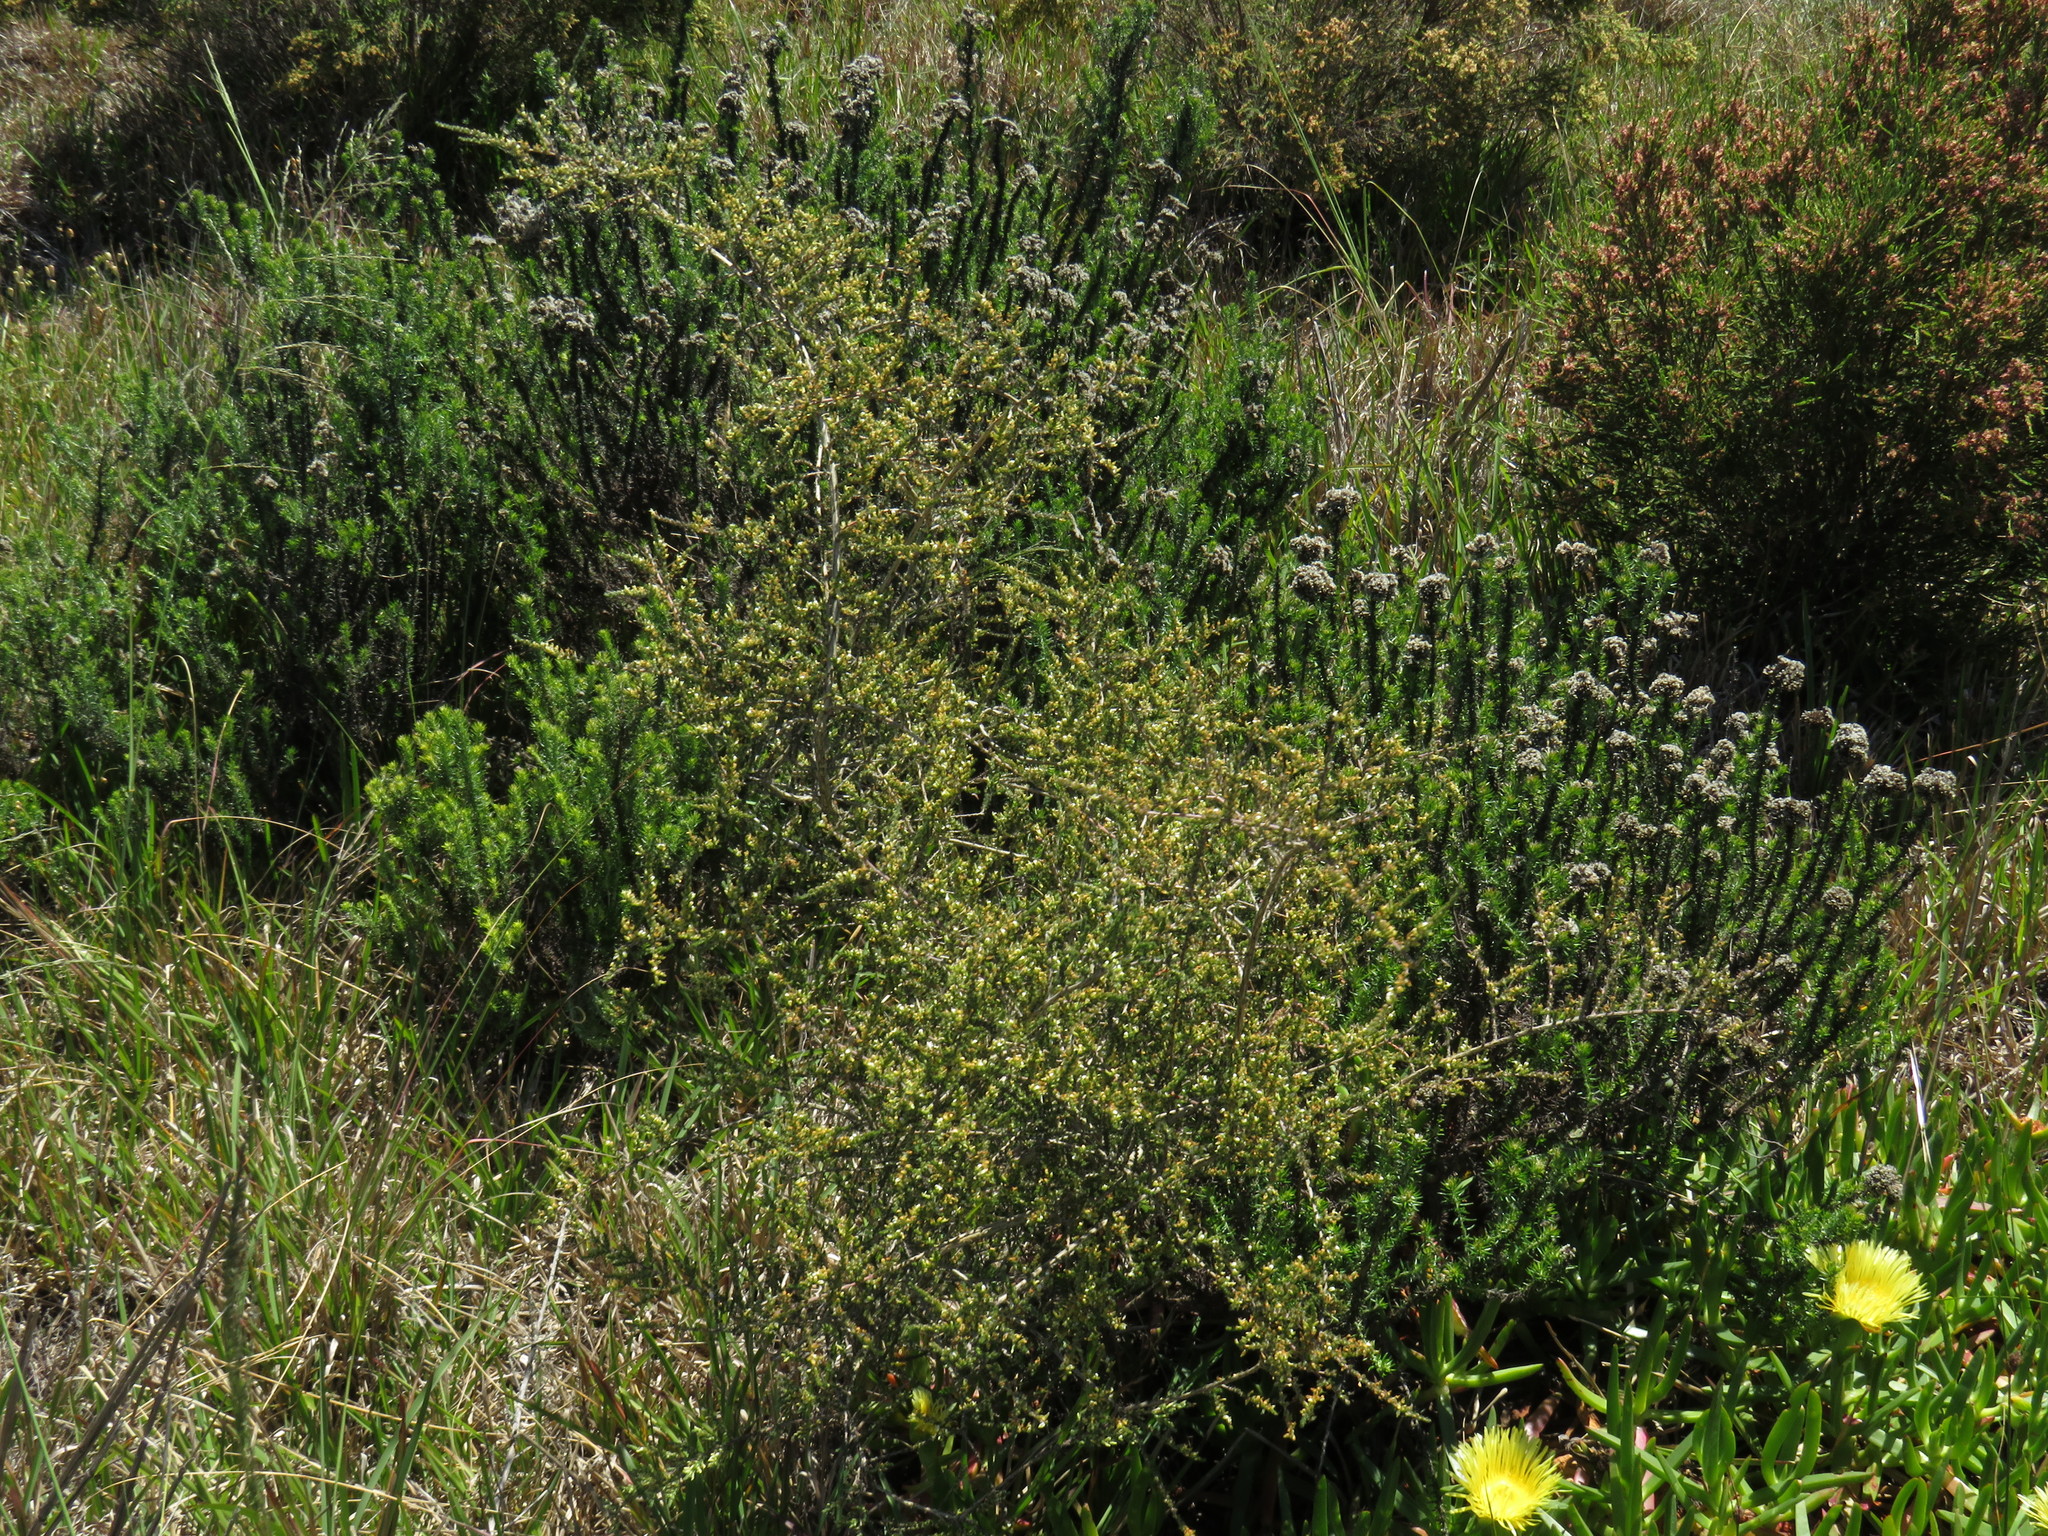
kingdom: Plantae
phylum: Tracheophyta
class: Magnoliopsida
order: Fabales
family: Fabaceae
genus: Aspalathus
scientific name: Aspalathus hispida
